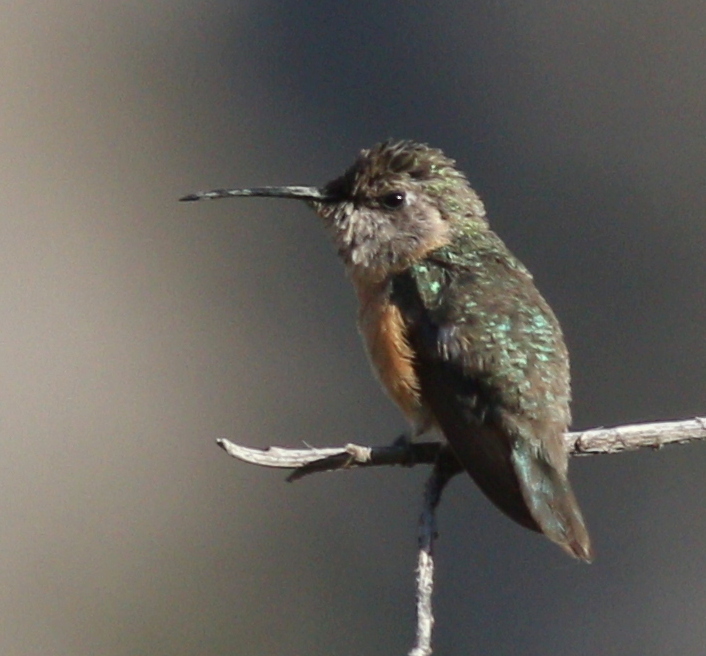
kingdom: Animalia
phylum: Chordata
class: Aves
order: Apodiformes
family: Trochilidae
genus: Myrtis
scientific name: Myrtis fanny
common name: Purple-collared woodstar
